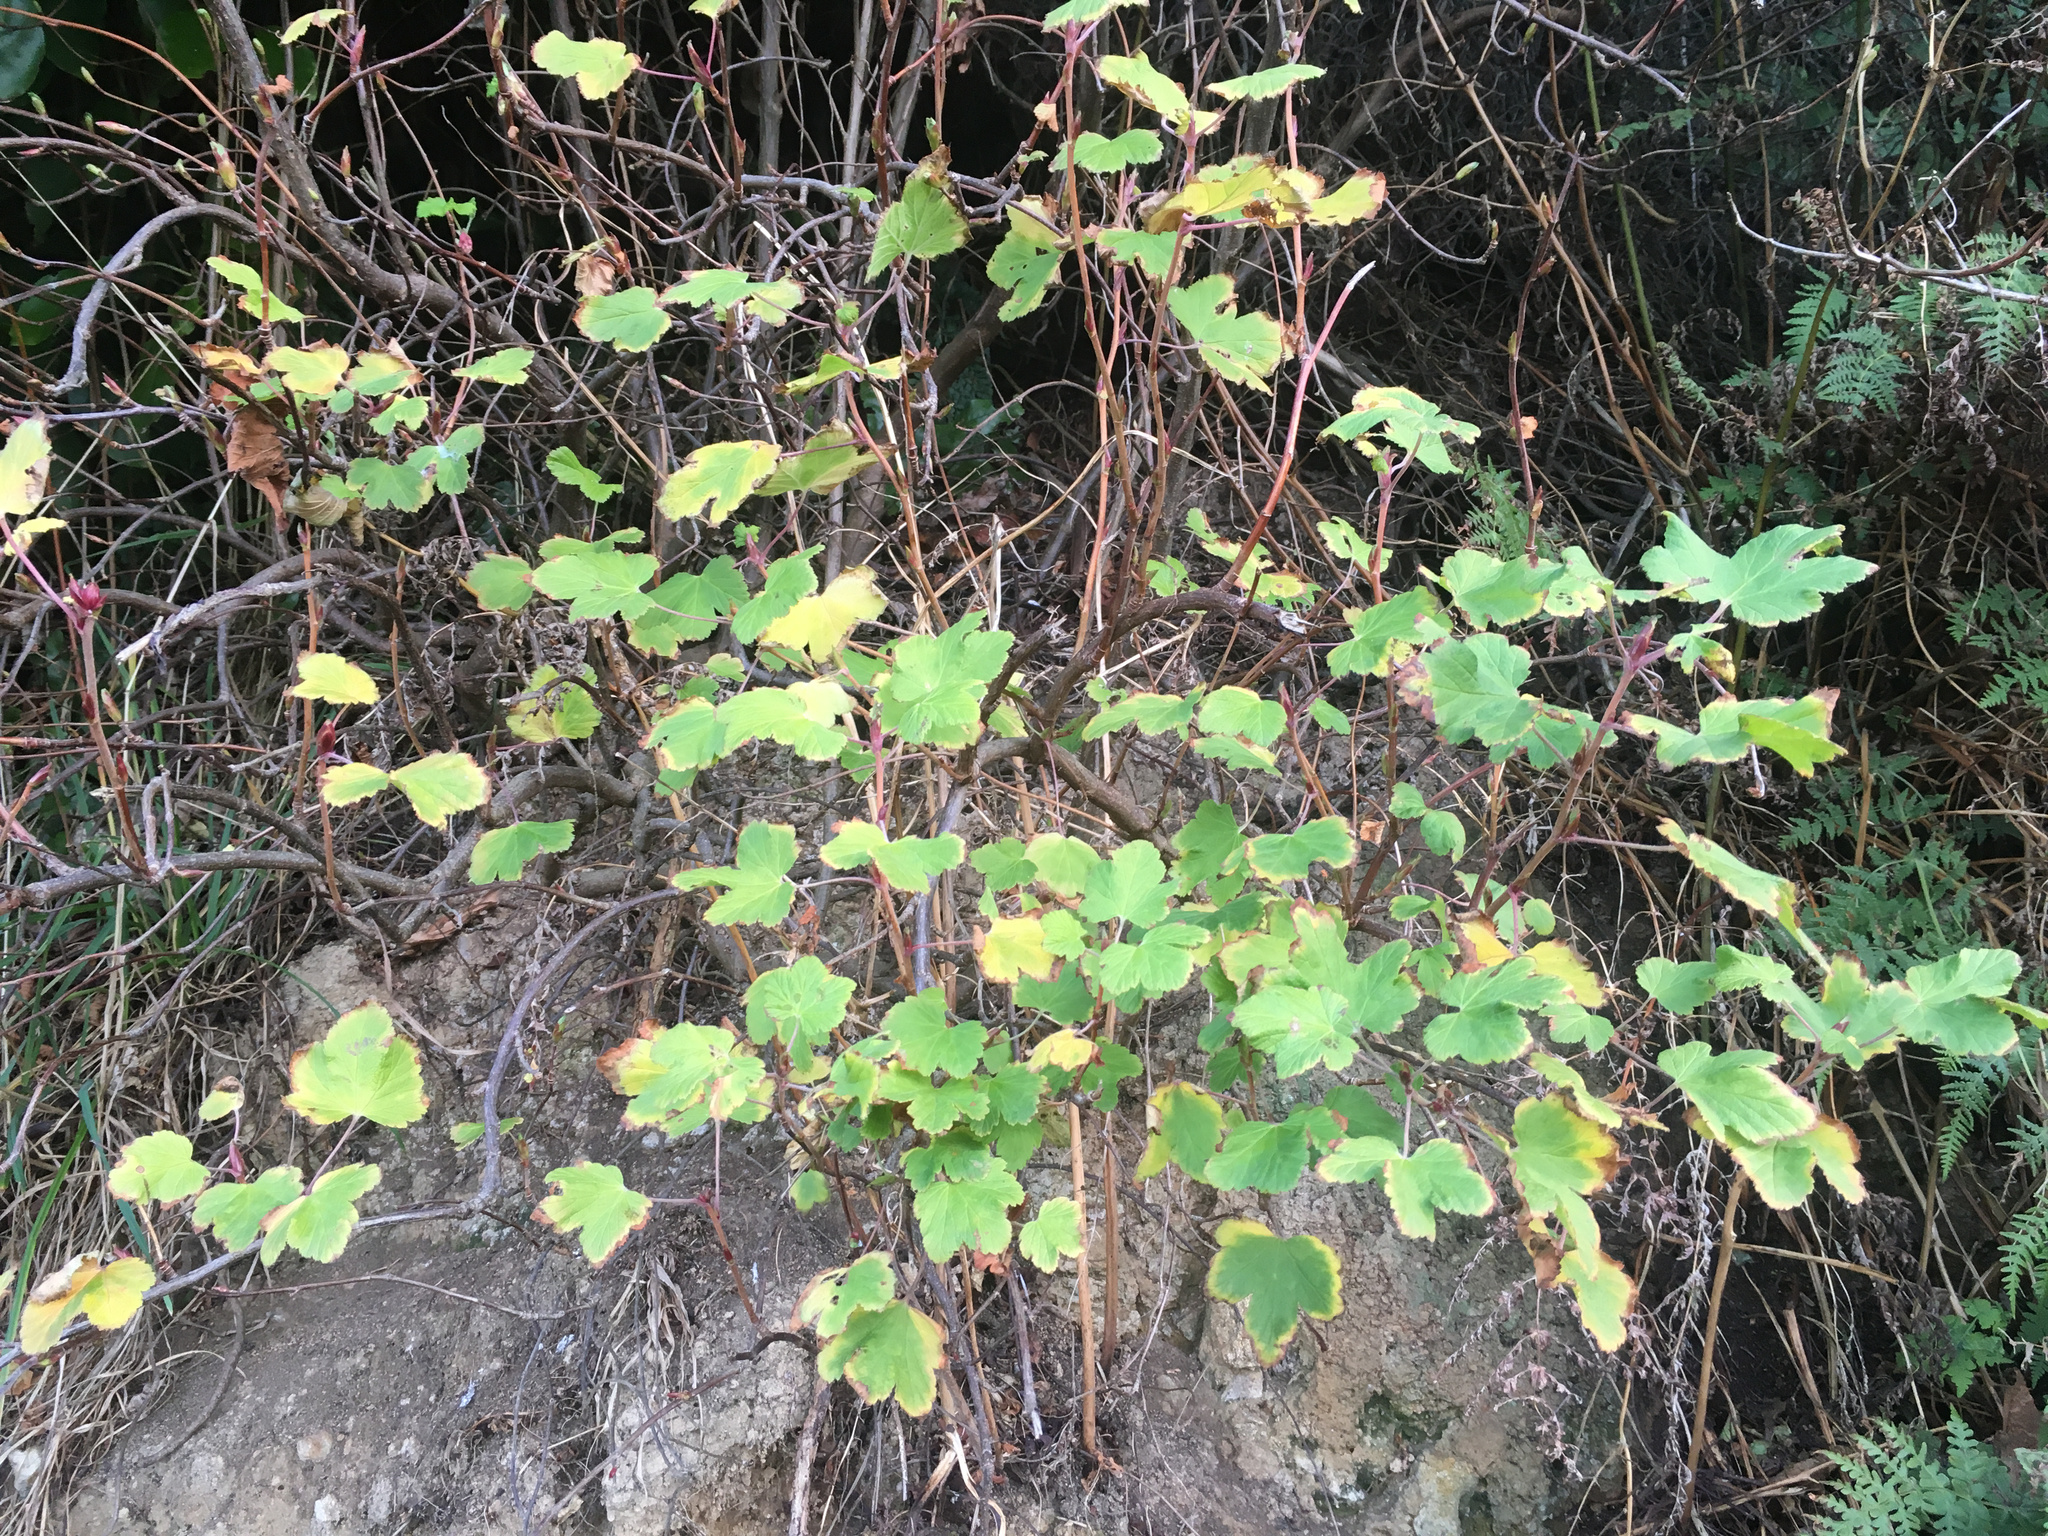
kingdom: Plantae
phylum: Tracheophyta
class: Magnoliopsida
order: Saxifragales
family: Grossulariaceae
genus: Ribes
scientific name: Ribes sanguineum
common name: Flowering currant
